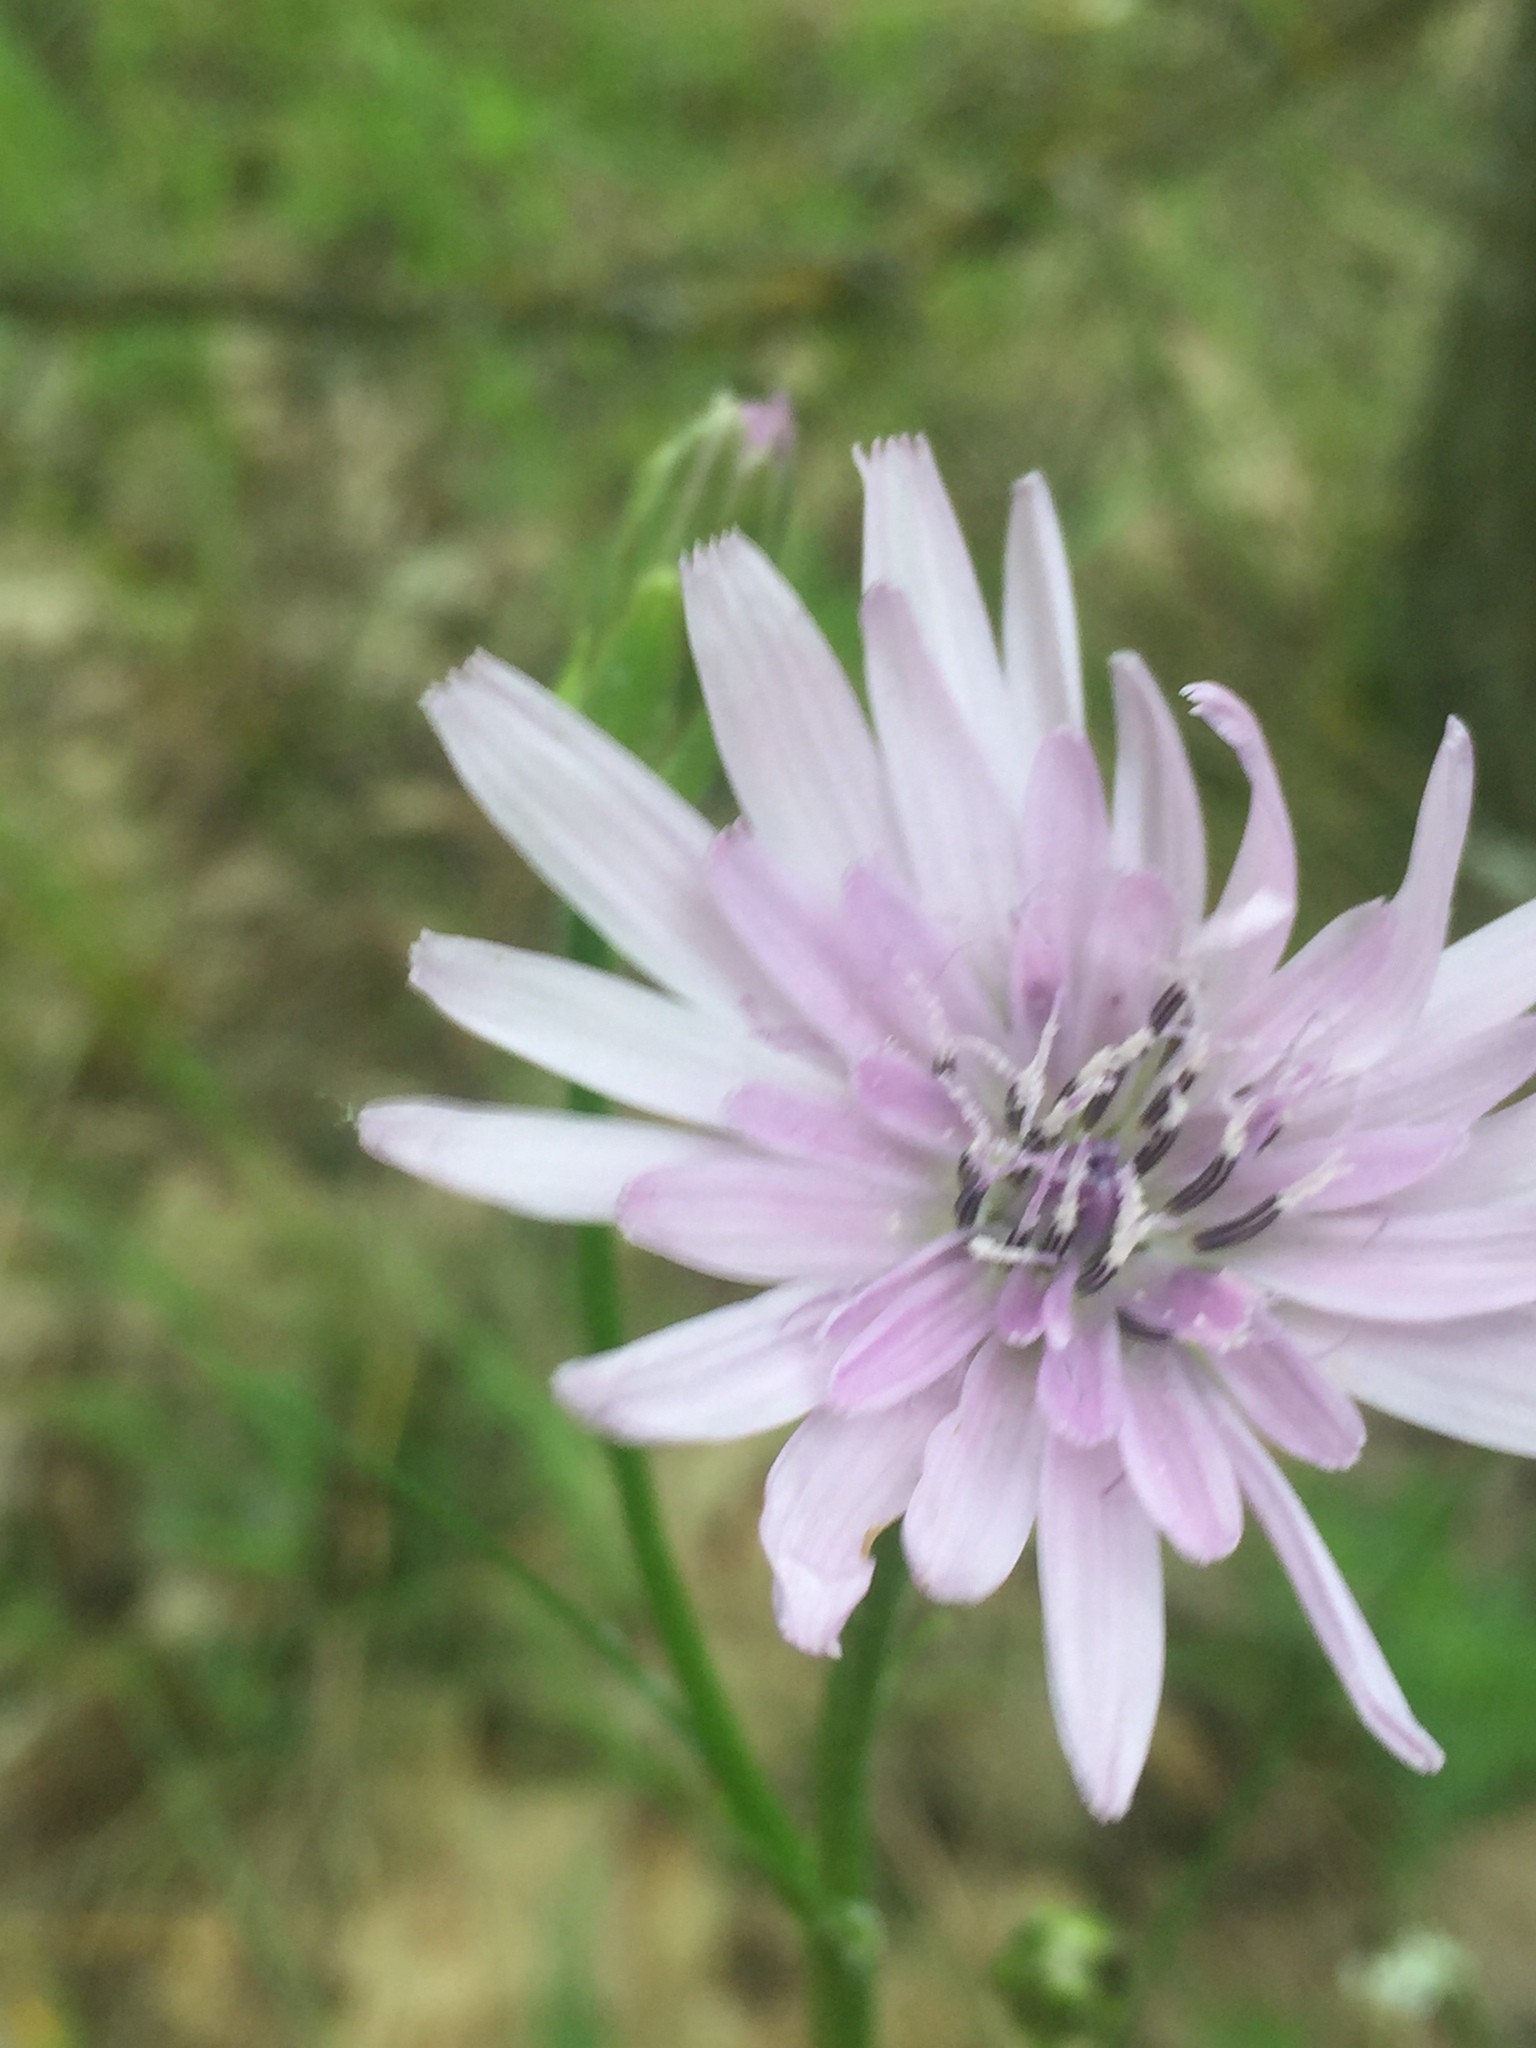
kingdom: Plantae
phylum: Tracheophyta
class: Magnoliopsida
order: Asterales
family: Asteraceae
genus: Scorzonera
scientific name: Scorzonera purpurea
